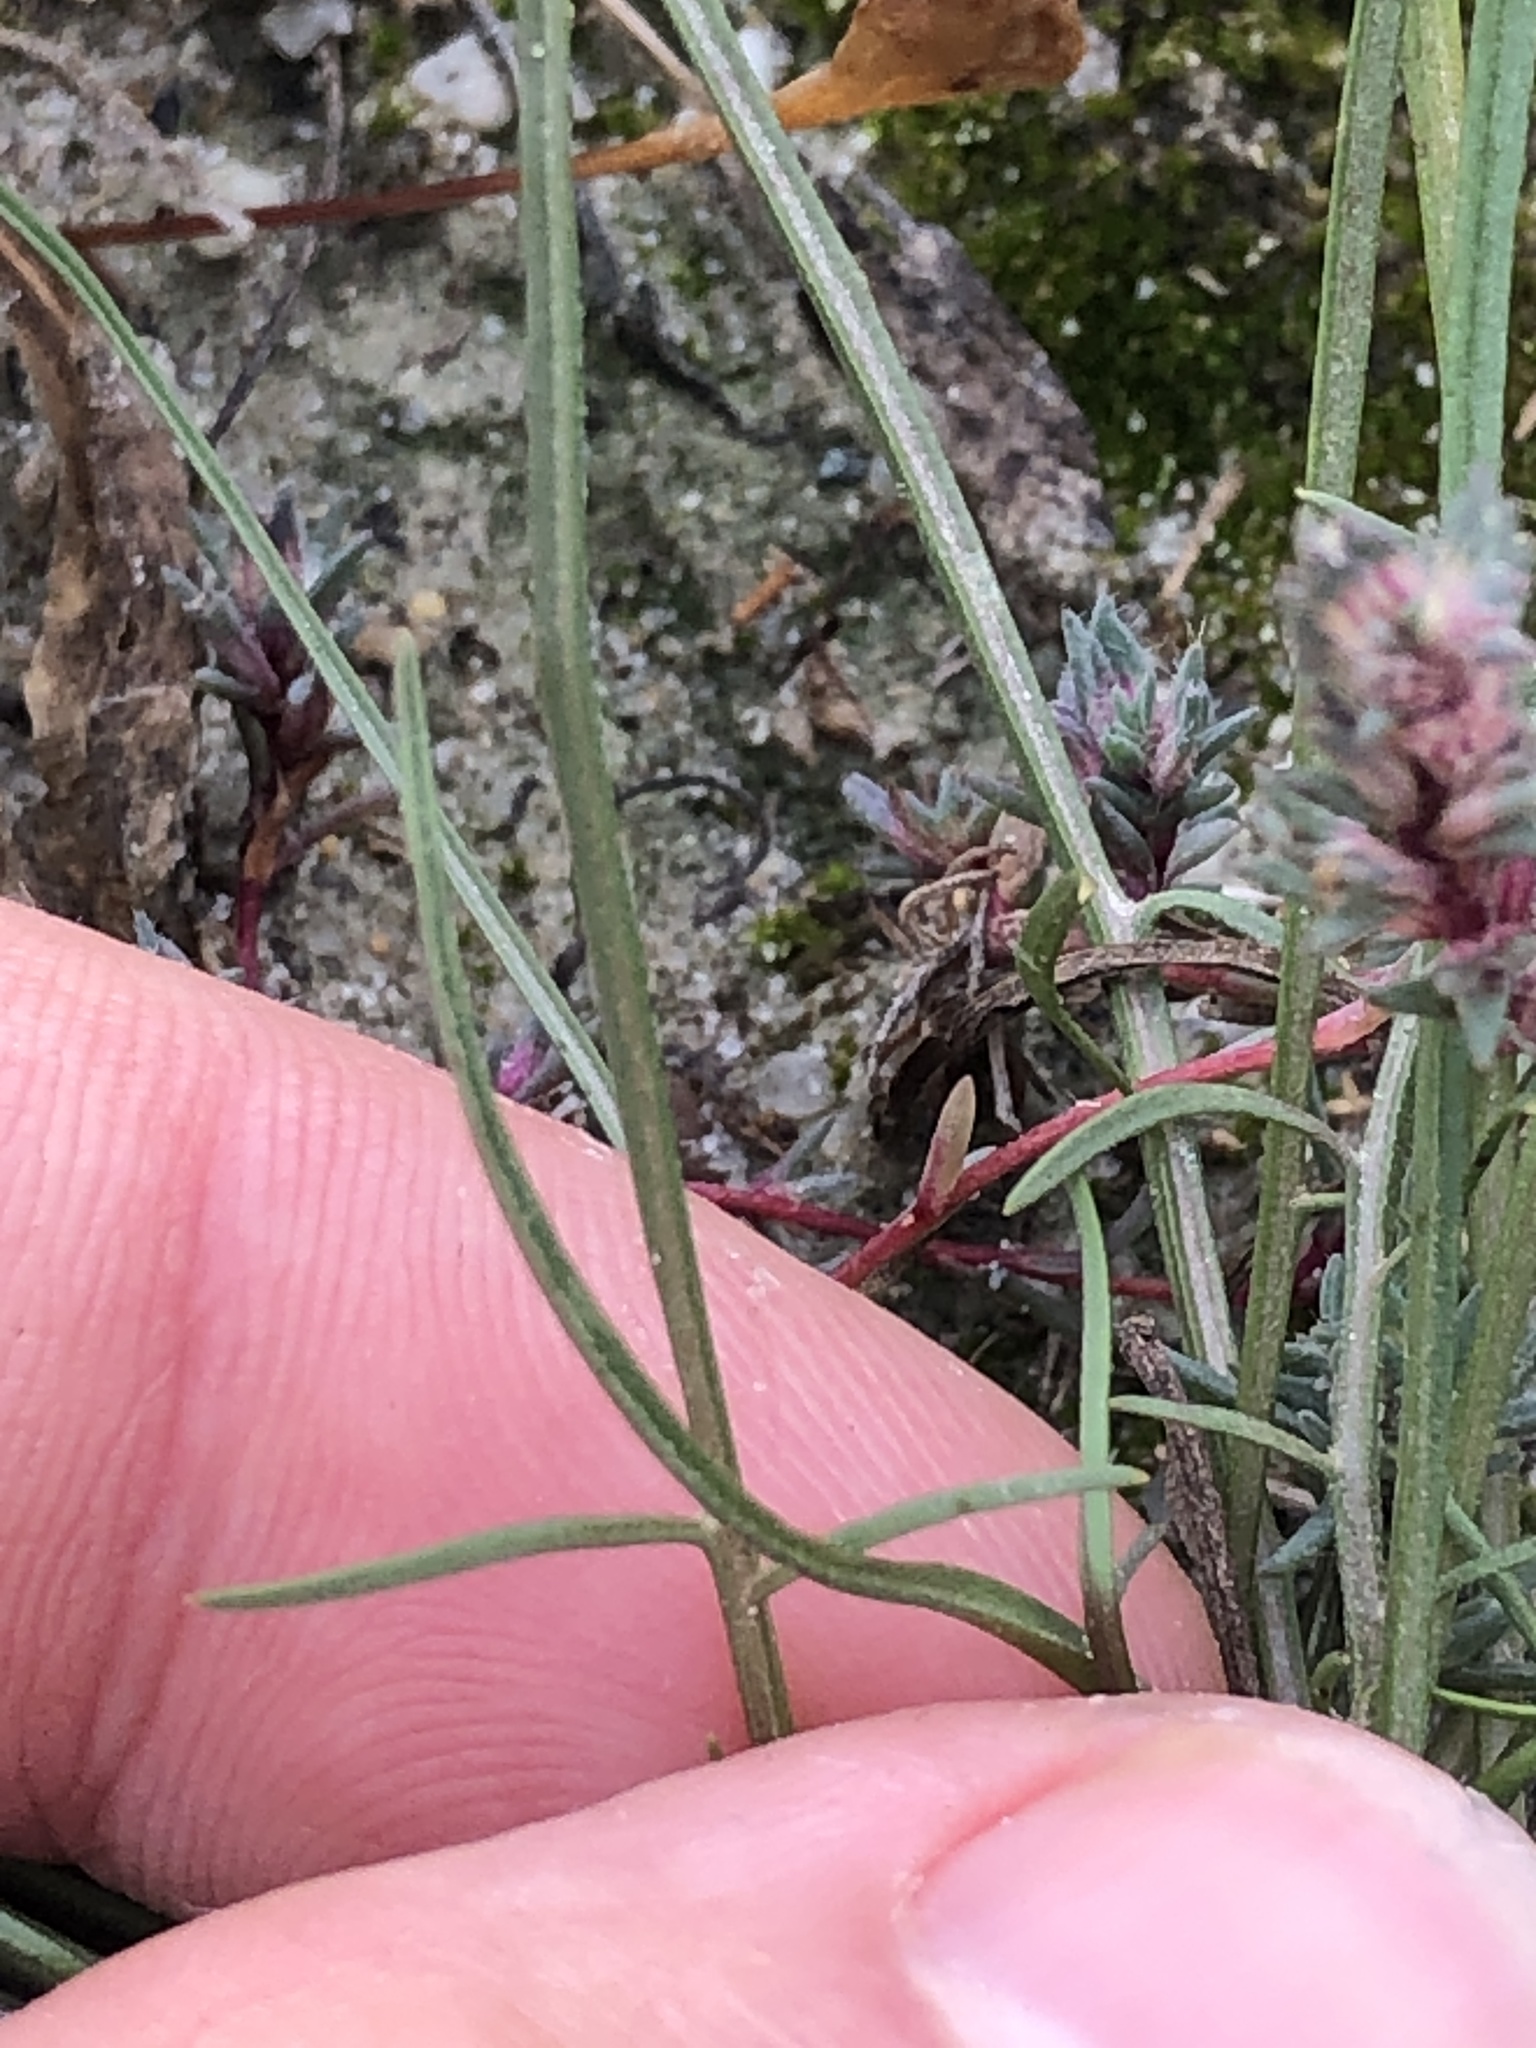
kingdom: Plantae
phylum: Tracheophyta
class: Magnoliopsida
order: Asterales
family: Asteraceae
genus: Scorzonera
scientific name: Scorzonera cana
